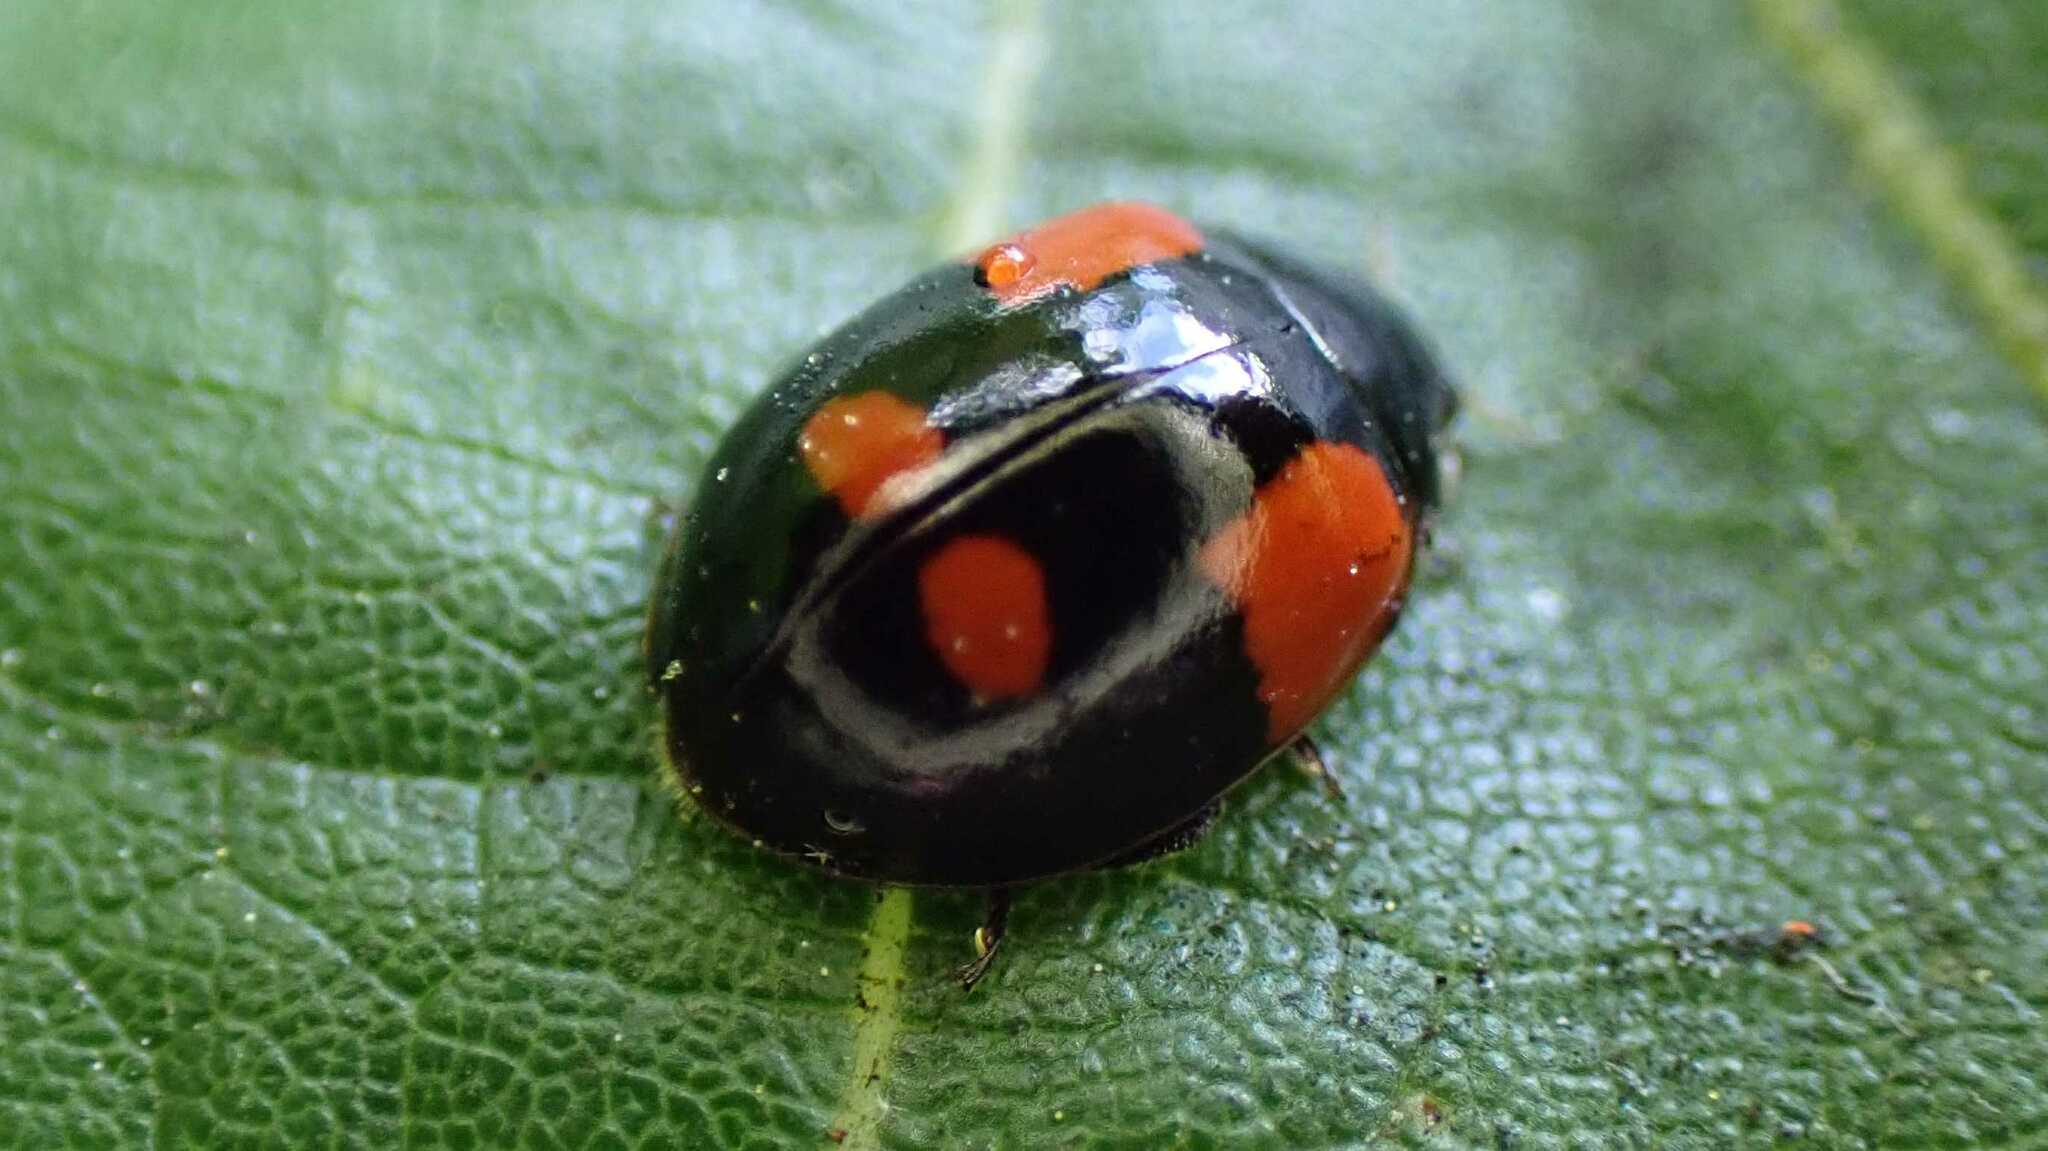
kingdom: Animalia
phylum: Arthropoda
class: Insecta
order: Coleoptera
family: Coccinellidae
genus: Adalia
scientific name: Adalia bipunctata
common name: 2-spot ladybird
